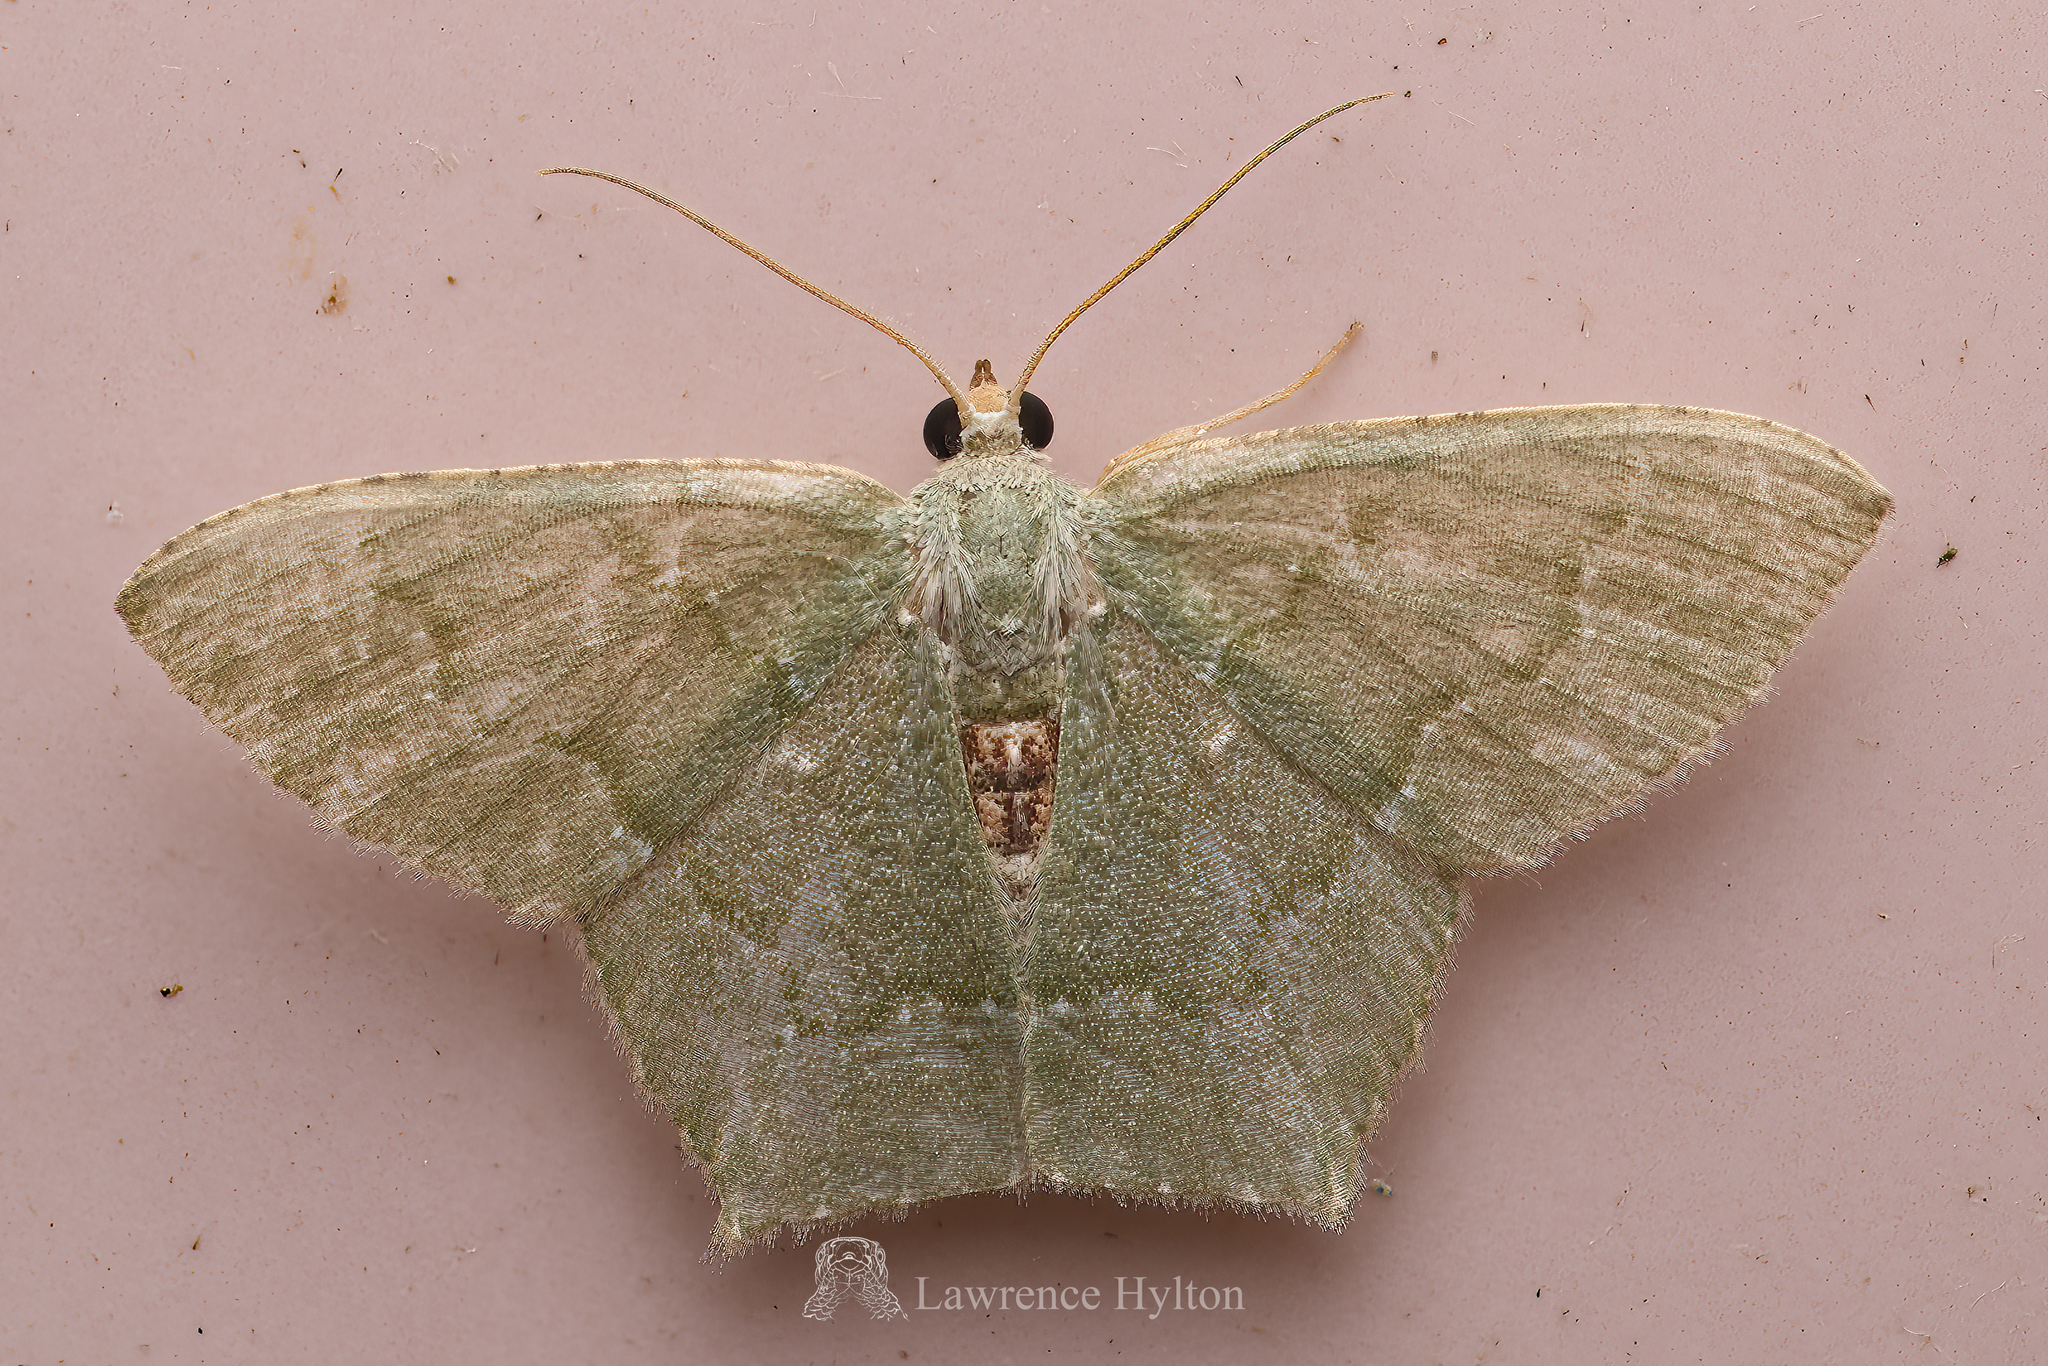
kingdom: Animalia
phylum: Arthropoda
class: Insecta
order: Lepidoptera
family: Geometridae
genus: Hemithea
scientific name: Hemithea marina
